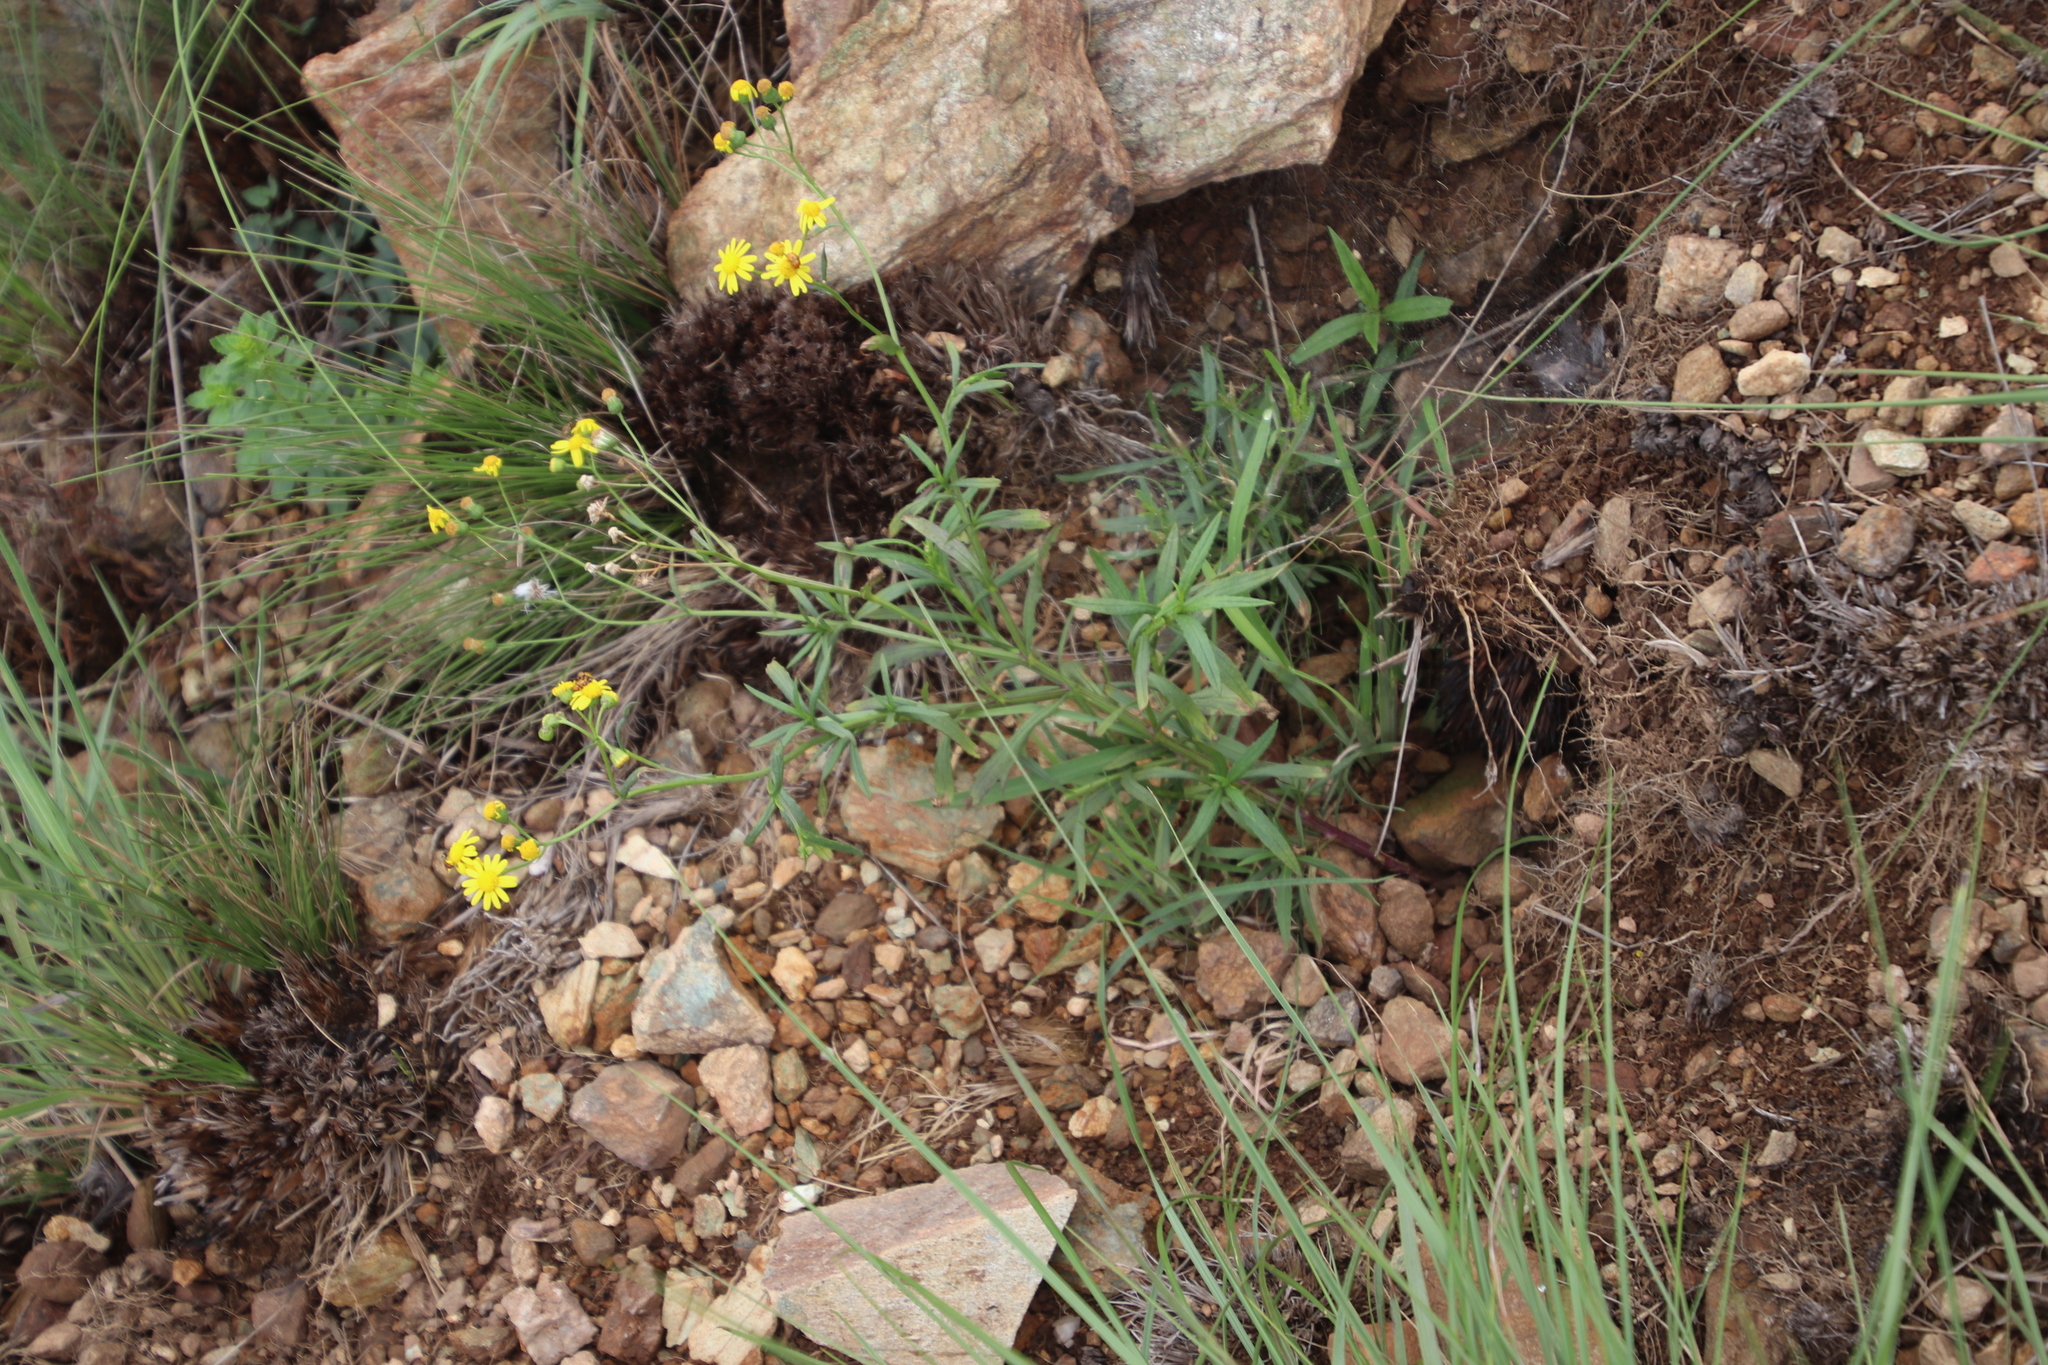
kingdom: Plantae
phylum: Tracheophyta
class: Magnoliopsida
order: Asterales
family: Asteraceae
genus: Senecio
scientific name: Senecio madagascariensis
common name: Madagascar ragwort
